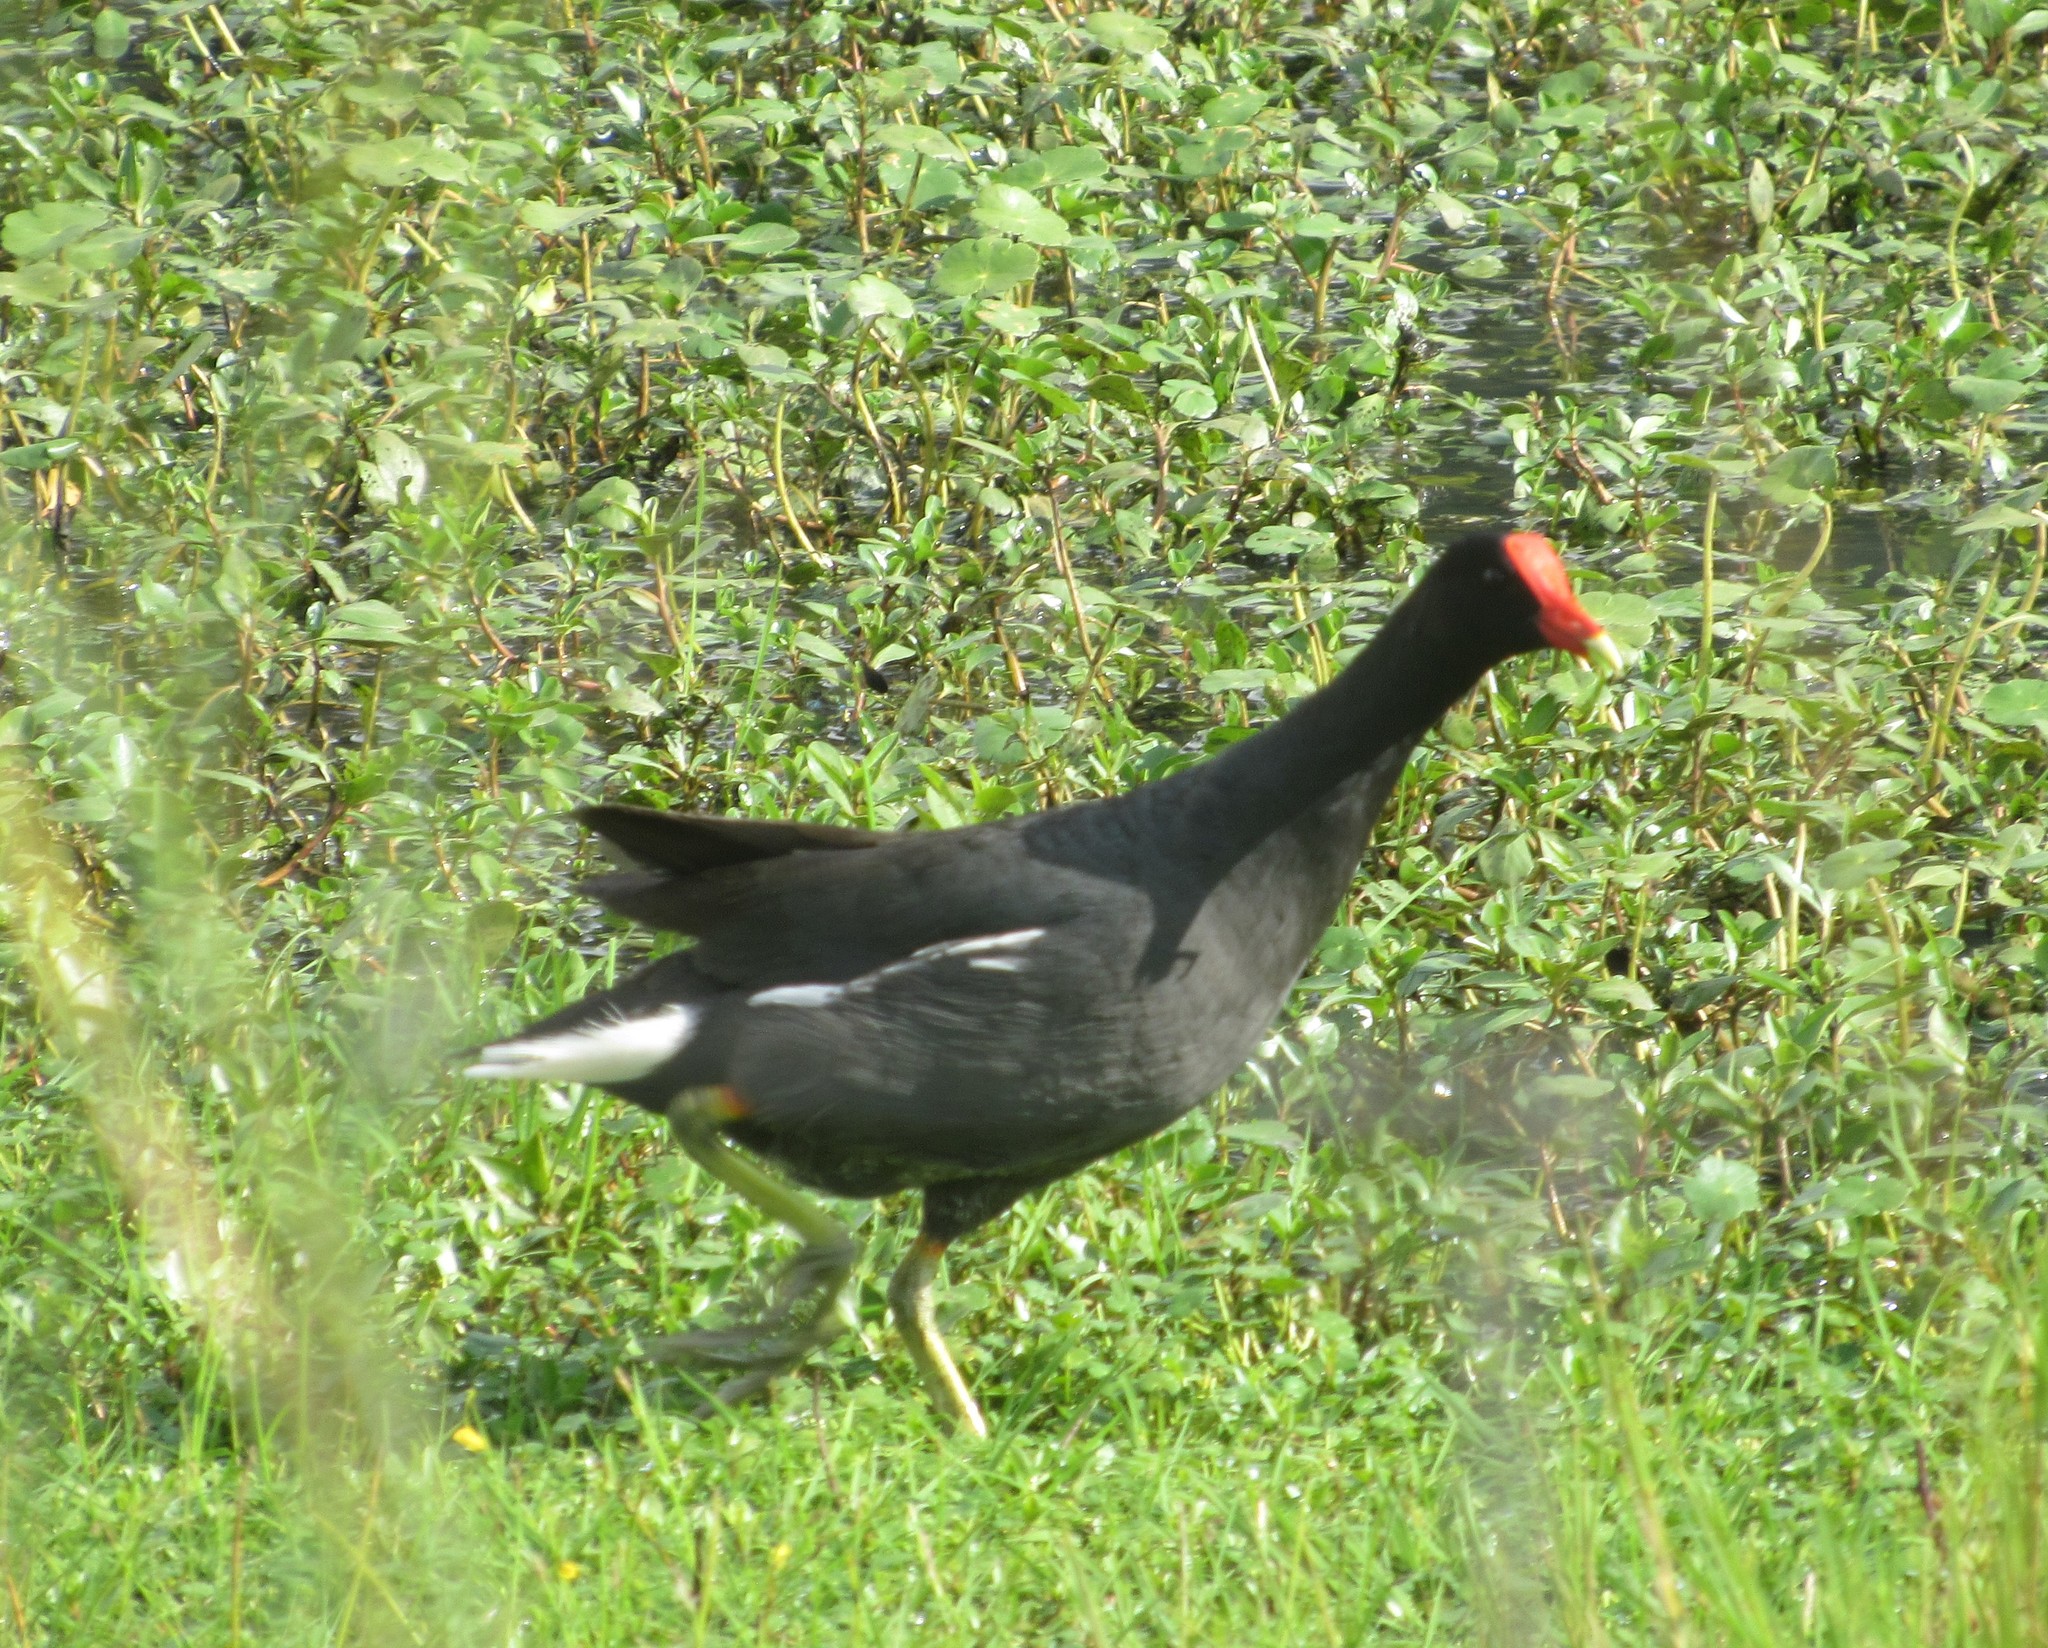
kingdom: Animalia
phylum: Chordata
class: Aves
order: Gruiformes
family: Rallidae
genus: Gallinula
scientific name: Gallinula chloropus
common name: Common moorhen
